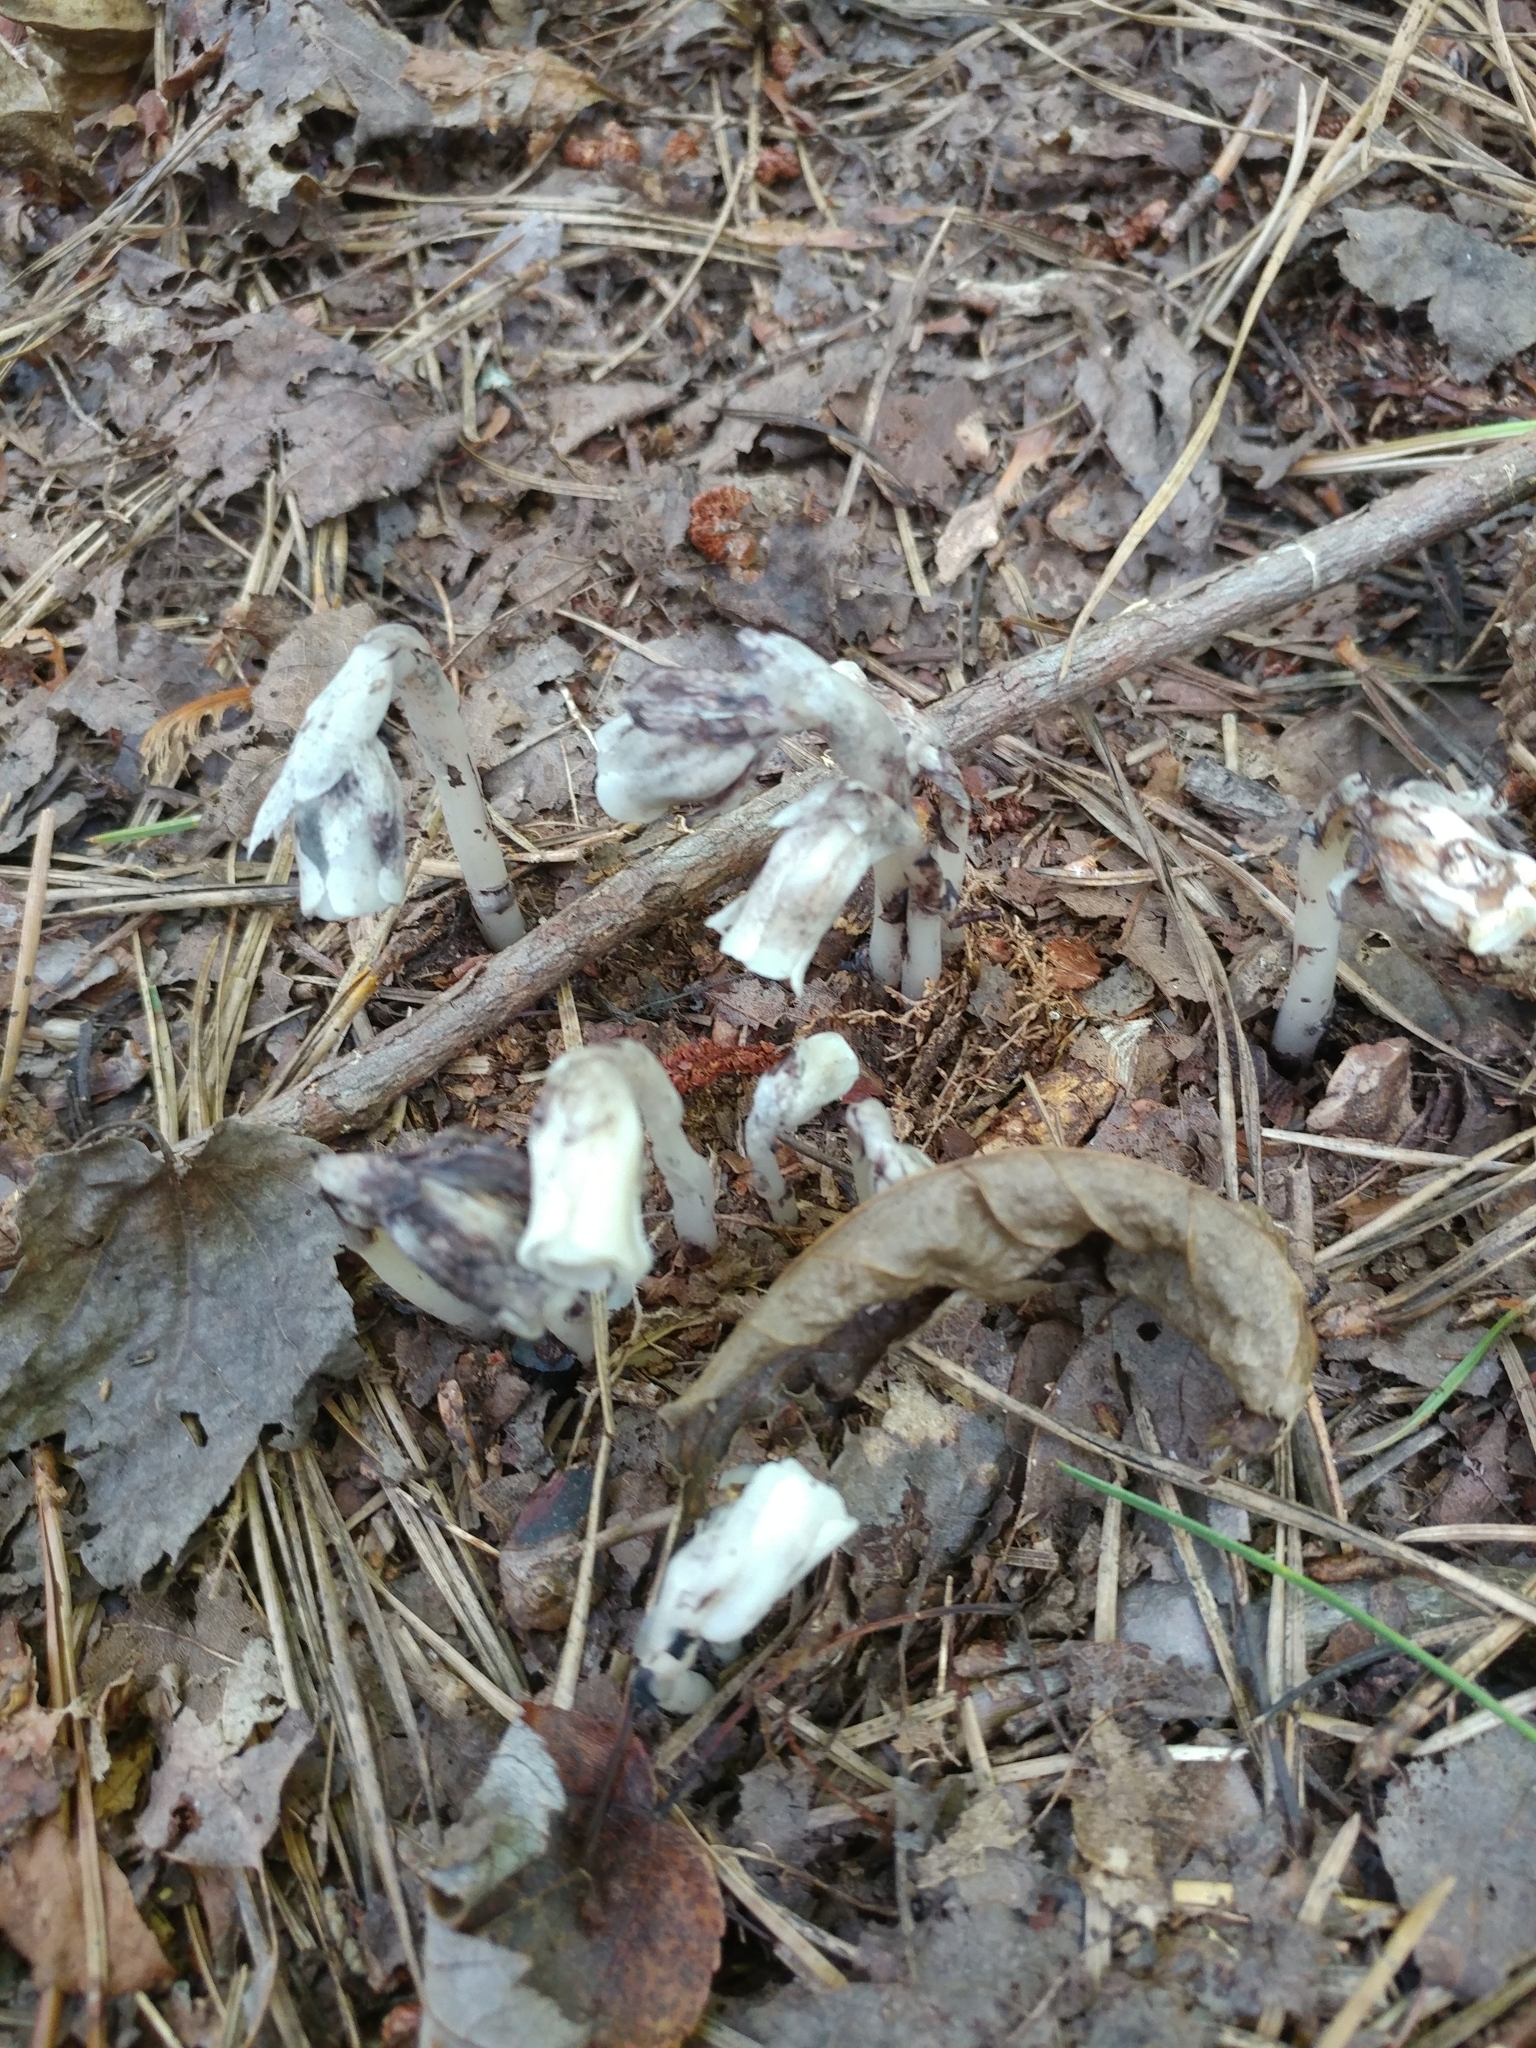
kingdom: Plantae
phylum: Tracheophyta
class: Magnoliopsida
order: Ericales
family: Ericaceae
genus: Monotropa
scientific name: Monotropa uniflora
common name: Convulsion root
